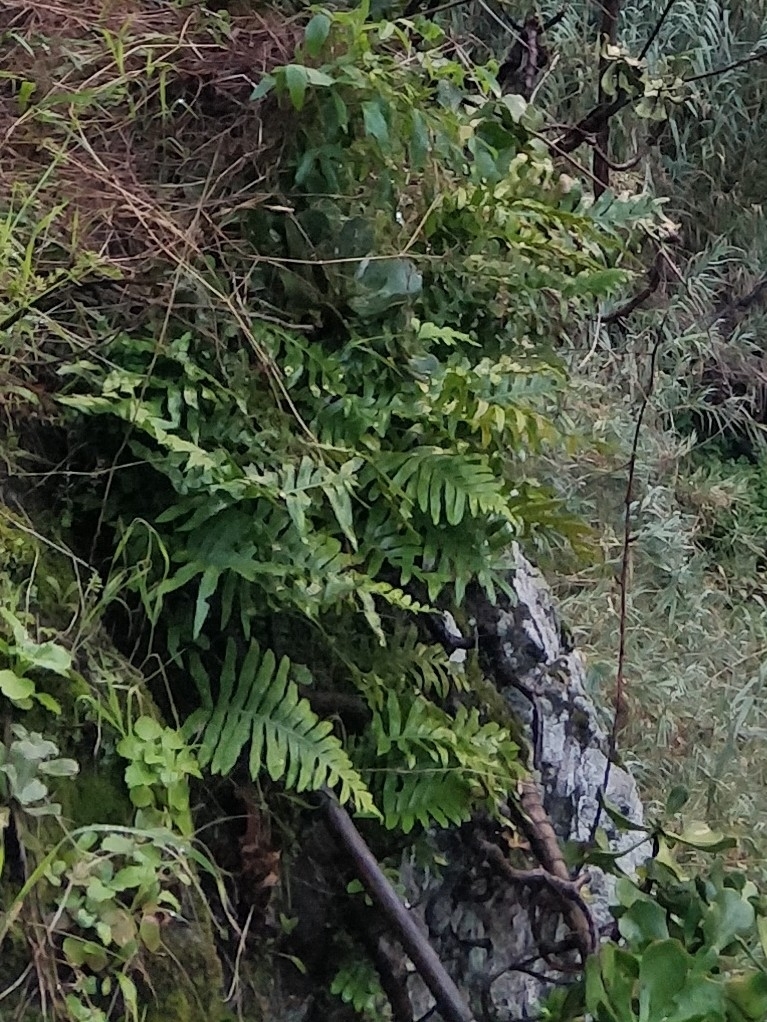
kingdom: Plantae
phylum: Tracheophyta
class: Polypodiopsida
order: Polypodiales
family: Polypodiaceae
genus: Polypodium
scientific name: Polypodium macaronesicum
